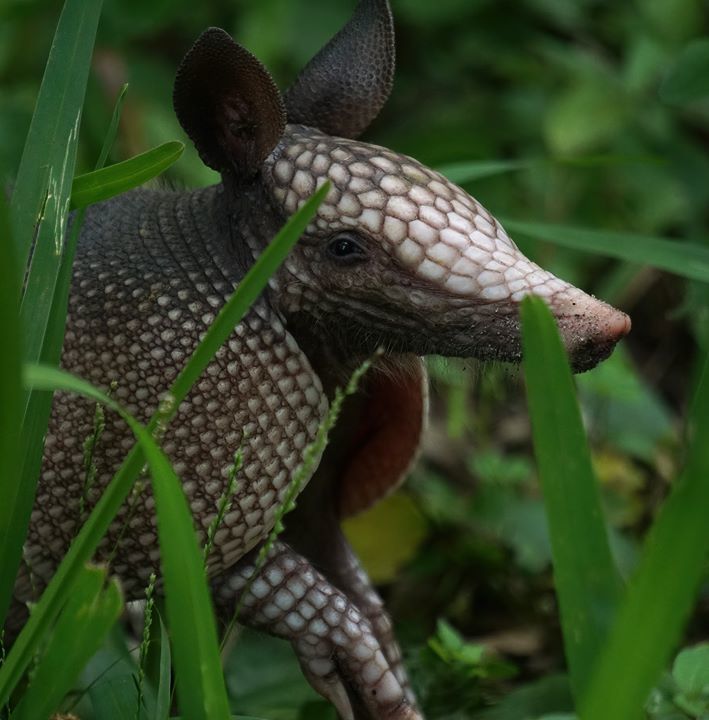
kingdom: Animalia
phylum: Chordata
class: Mammalia
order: Cingulata
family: Dasypodidae
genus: Dasypus
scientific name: Dasypus novemcinctus
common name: Nine-banded armadillo
